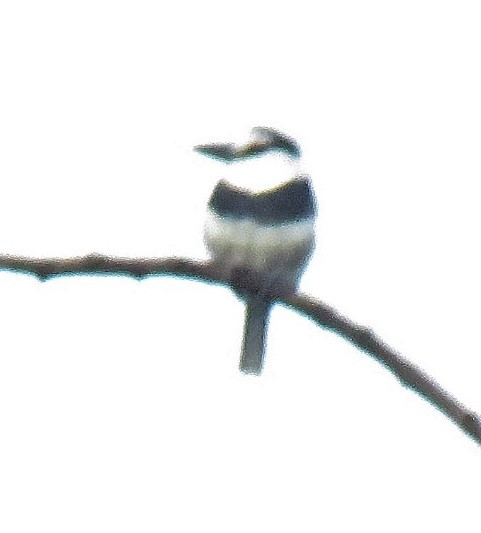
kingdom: Animalia
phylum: Chordata
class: Aves
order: Piciformes
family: Bucconidae
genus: Notharchus
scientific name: Notharchus hyperrhynchus
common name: White-necked puffbird
